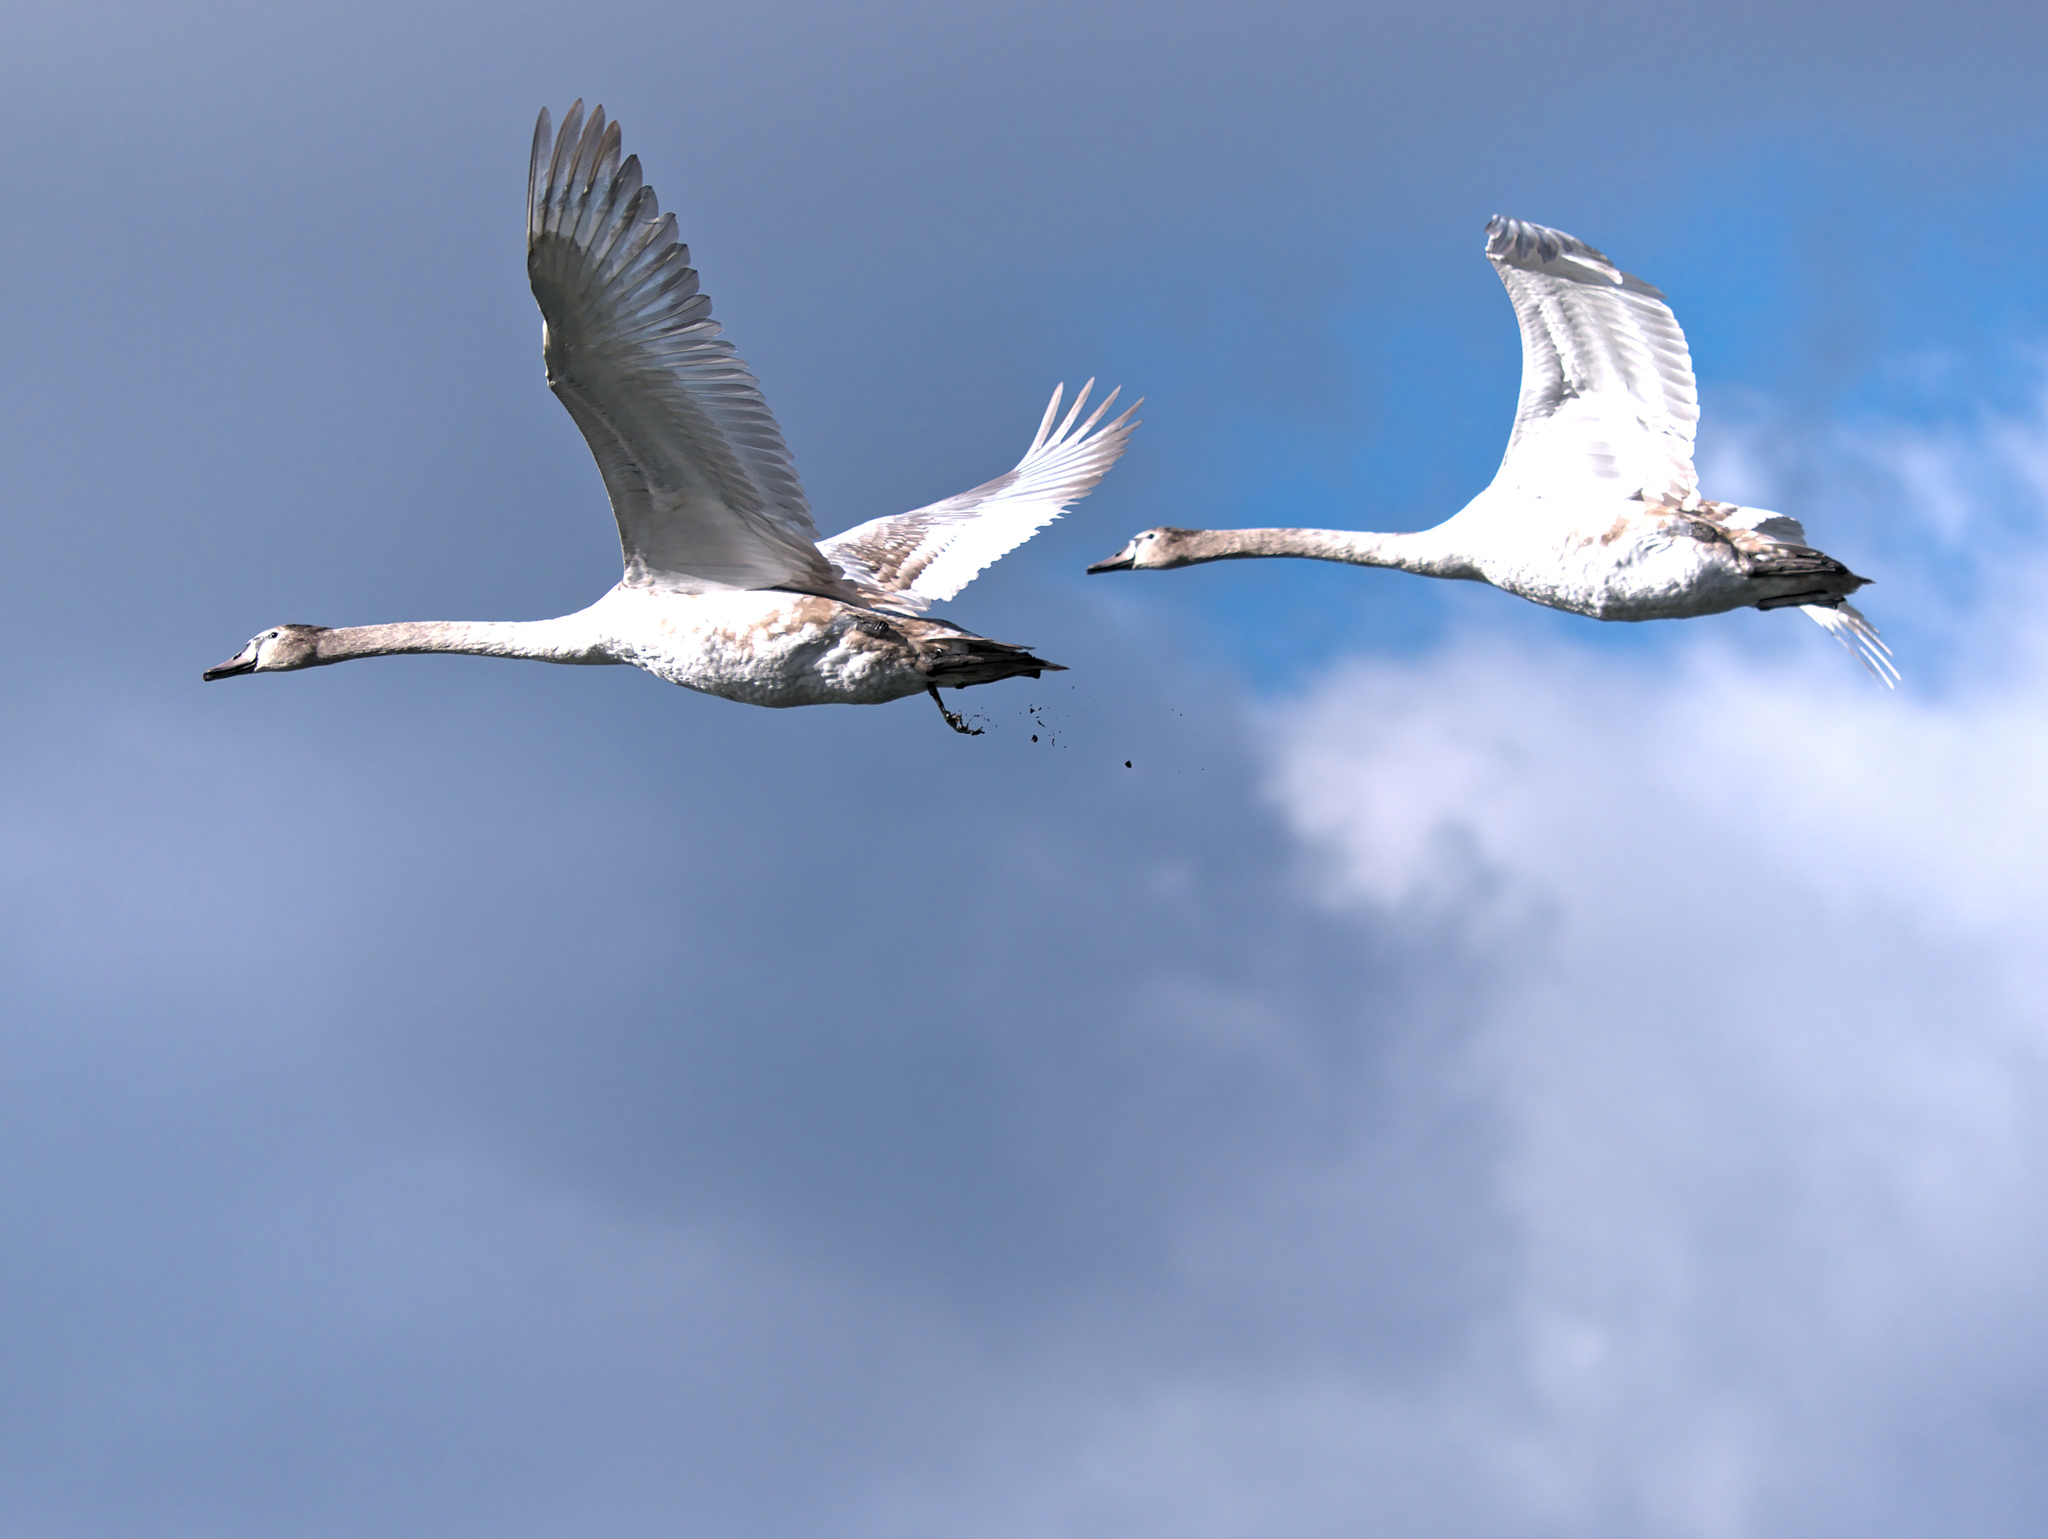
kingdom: Animalia
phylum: Chordata
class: Aves
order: Anseriformes
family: Anatidae
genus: Cygnus
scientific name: Cygnus olor
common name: Mute swan
